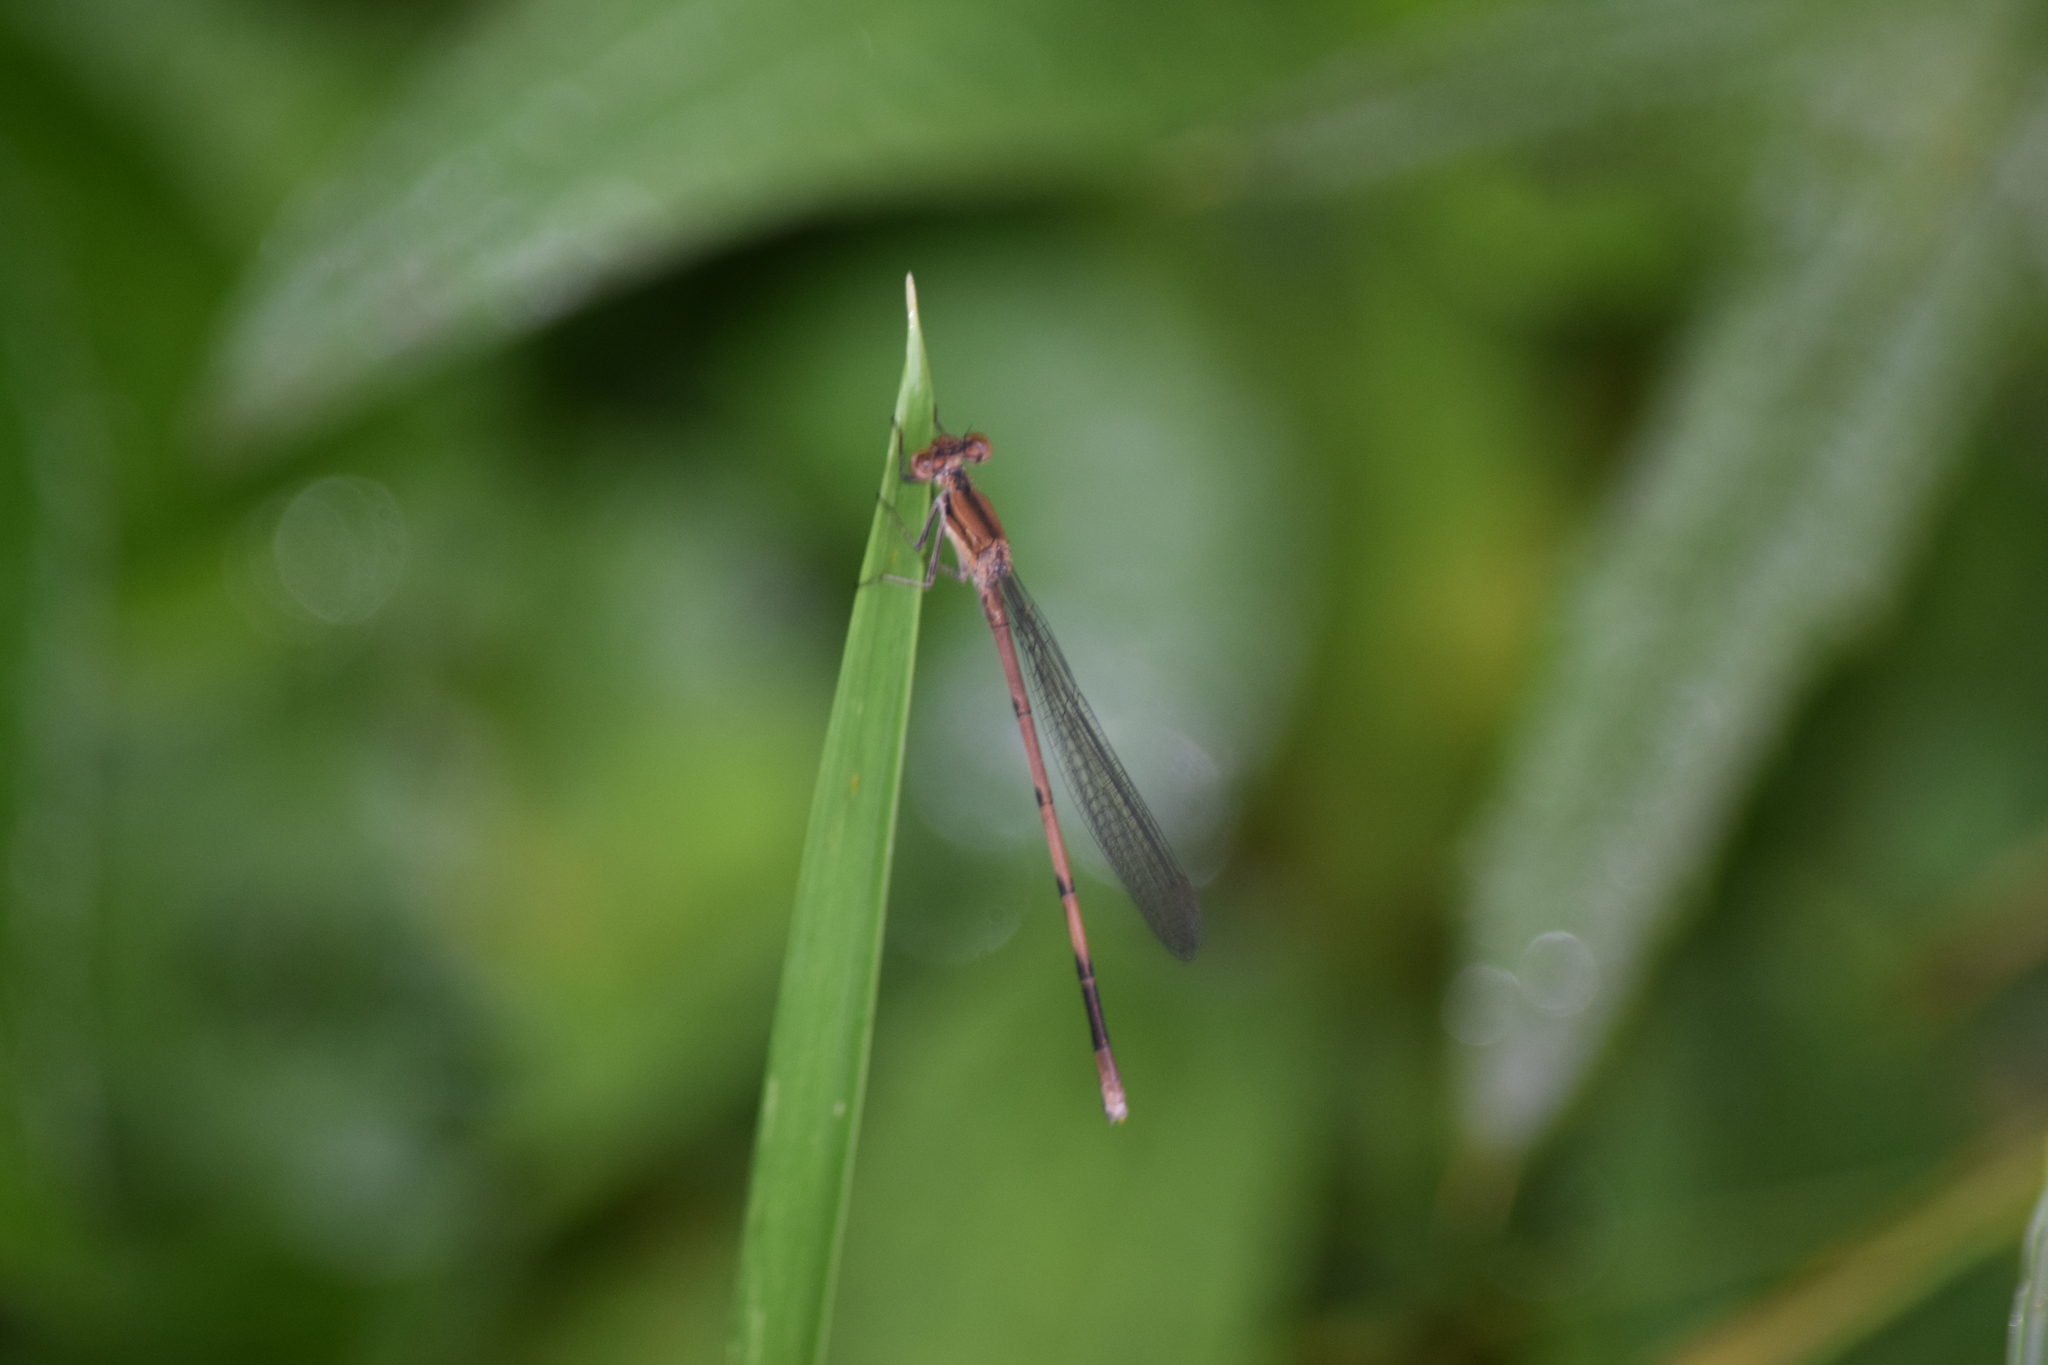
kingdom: Animalia
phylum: Arthropoda
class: Insecta
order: Odonata
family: Coenagrionidae
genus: Argia
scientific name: Argia fumipennis
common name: Variable dancer
